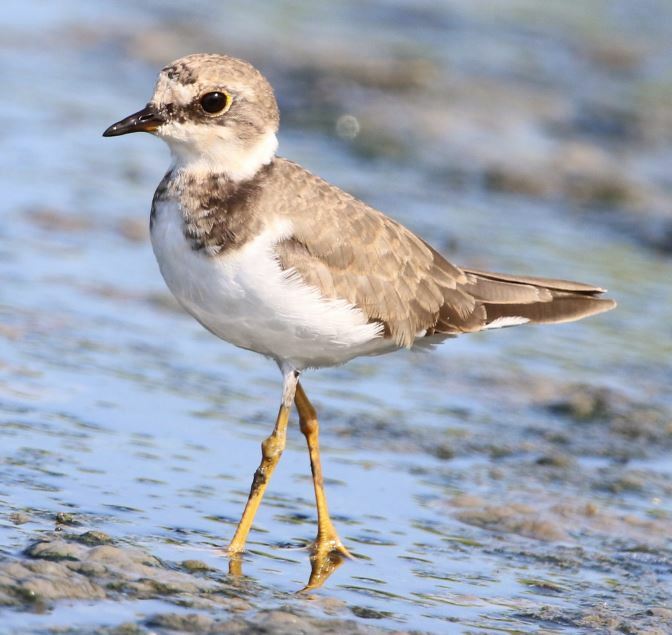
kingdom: Animalia
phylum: Chordata
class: Aves
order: Charadriiformes
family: Charadriidae
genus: Charadrius
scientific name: Charadrius dubius
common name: Little ringed plover
